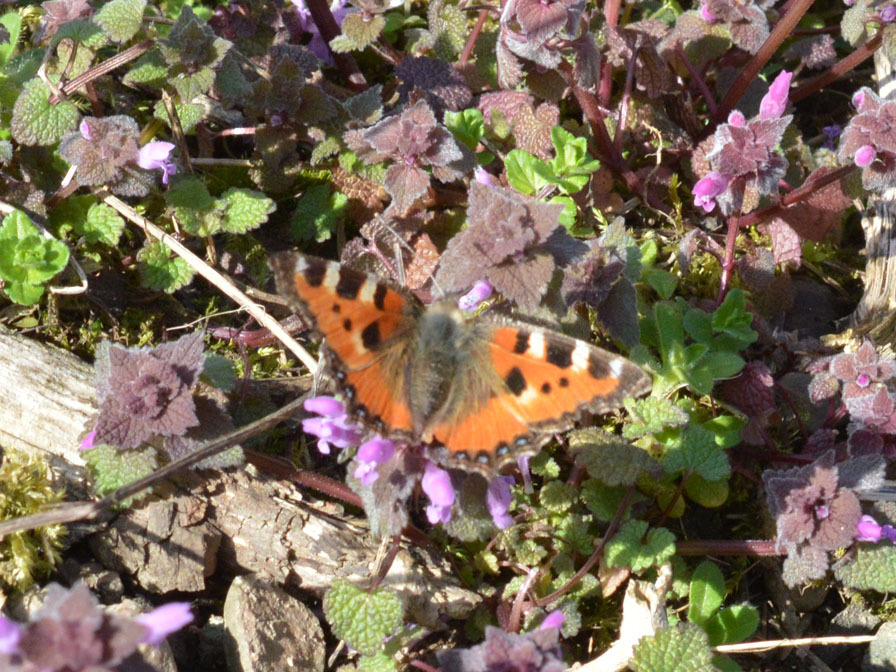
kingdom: Animalia
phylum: Arthropoda
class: Insecta
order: Lepidoptera
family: Nymphalidae
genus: Aglais
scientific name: Aglais urticae
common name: Small tortoiseshell
